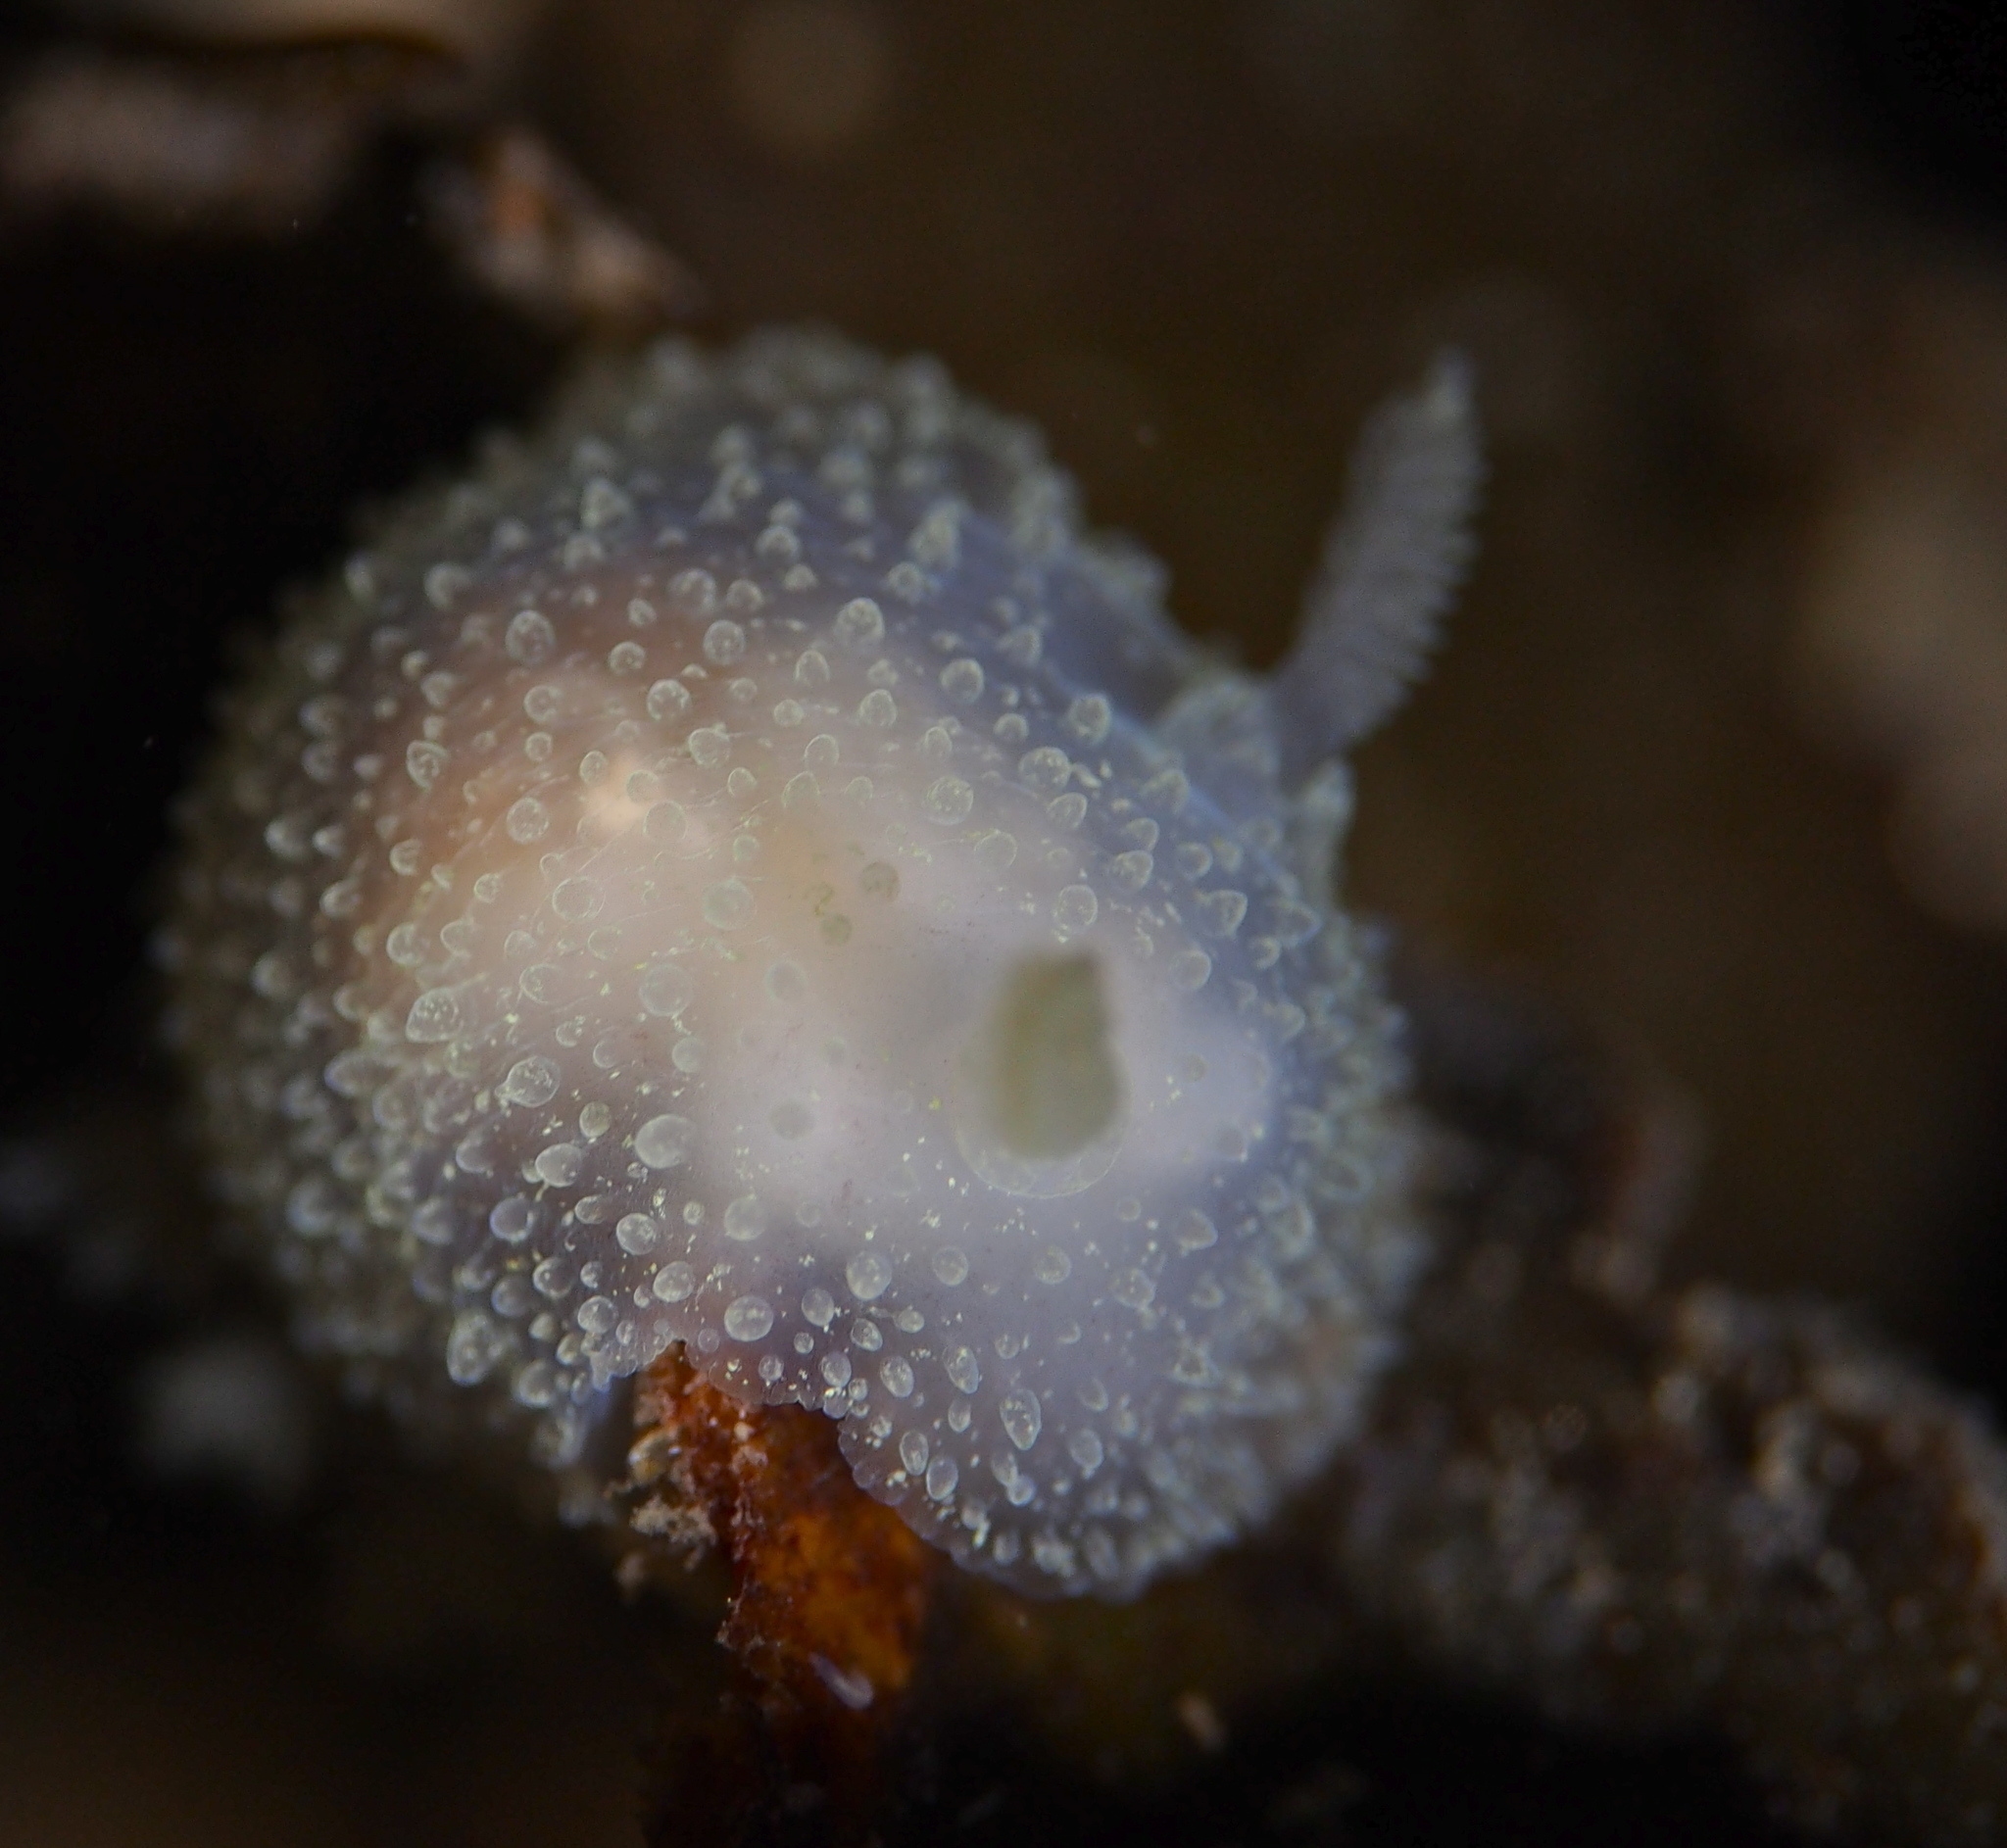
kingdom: Animalia
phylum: Mollusca
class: Gastropoda
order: Nudibranchia
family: Onchidorididae
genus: Acanthodoris
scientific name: Acanthodoris pilosa
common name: Hairy spiny doris
